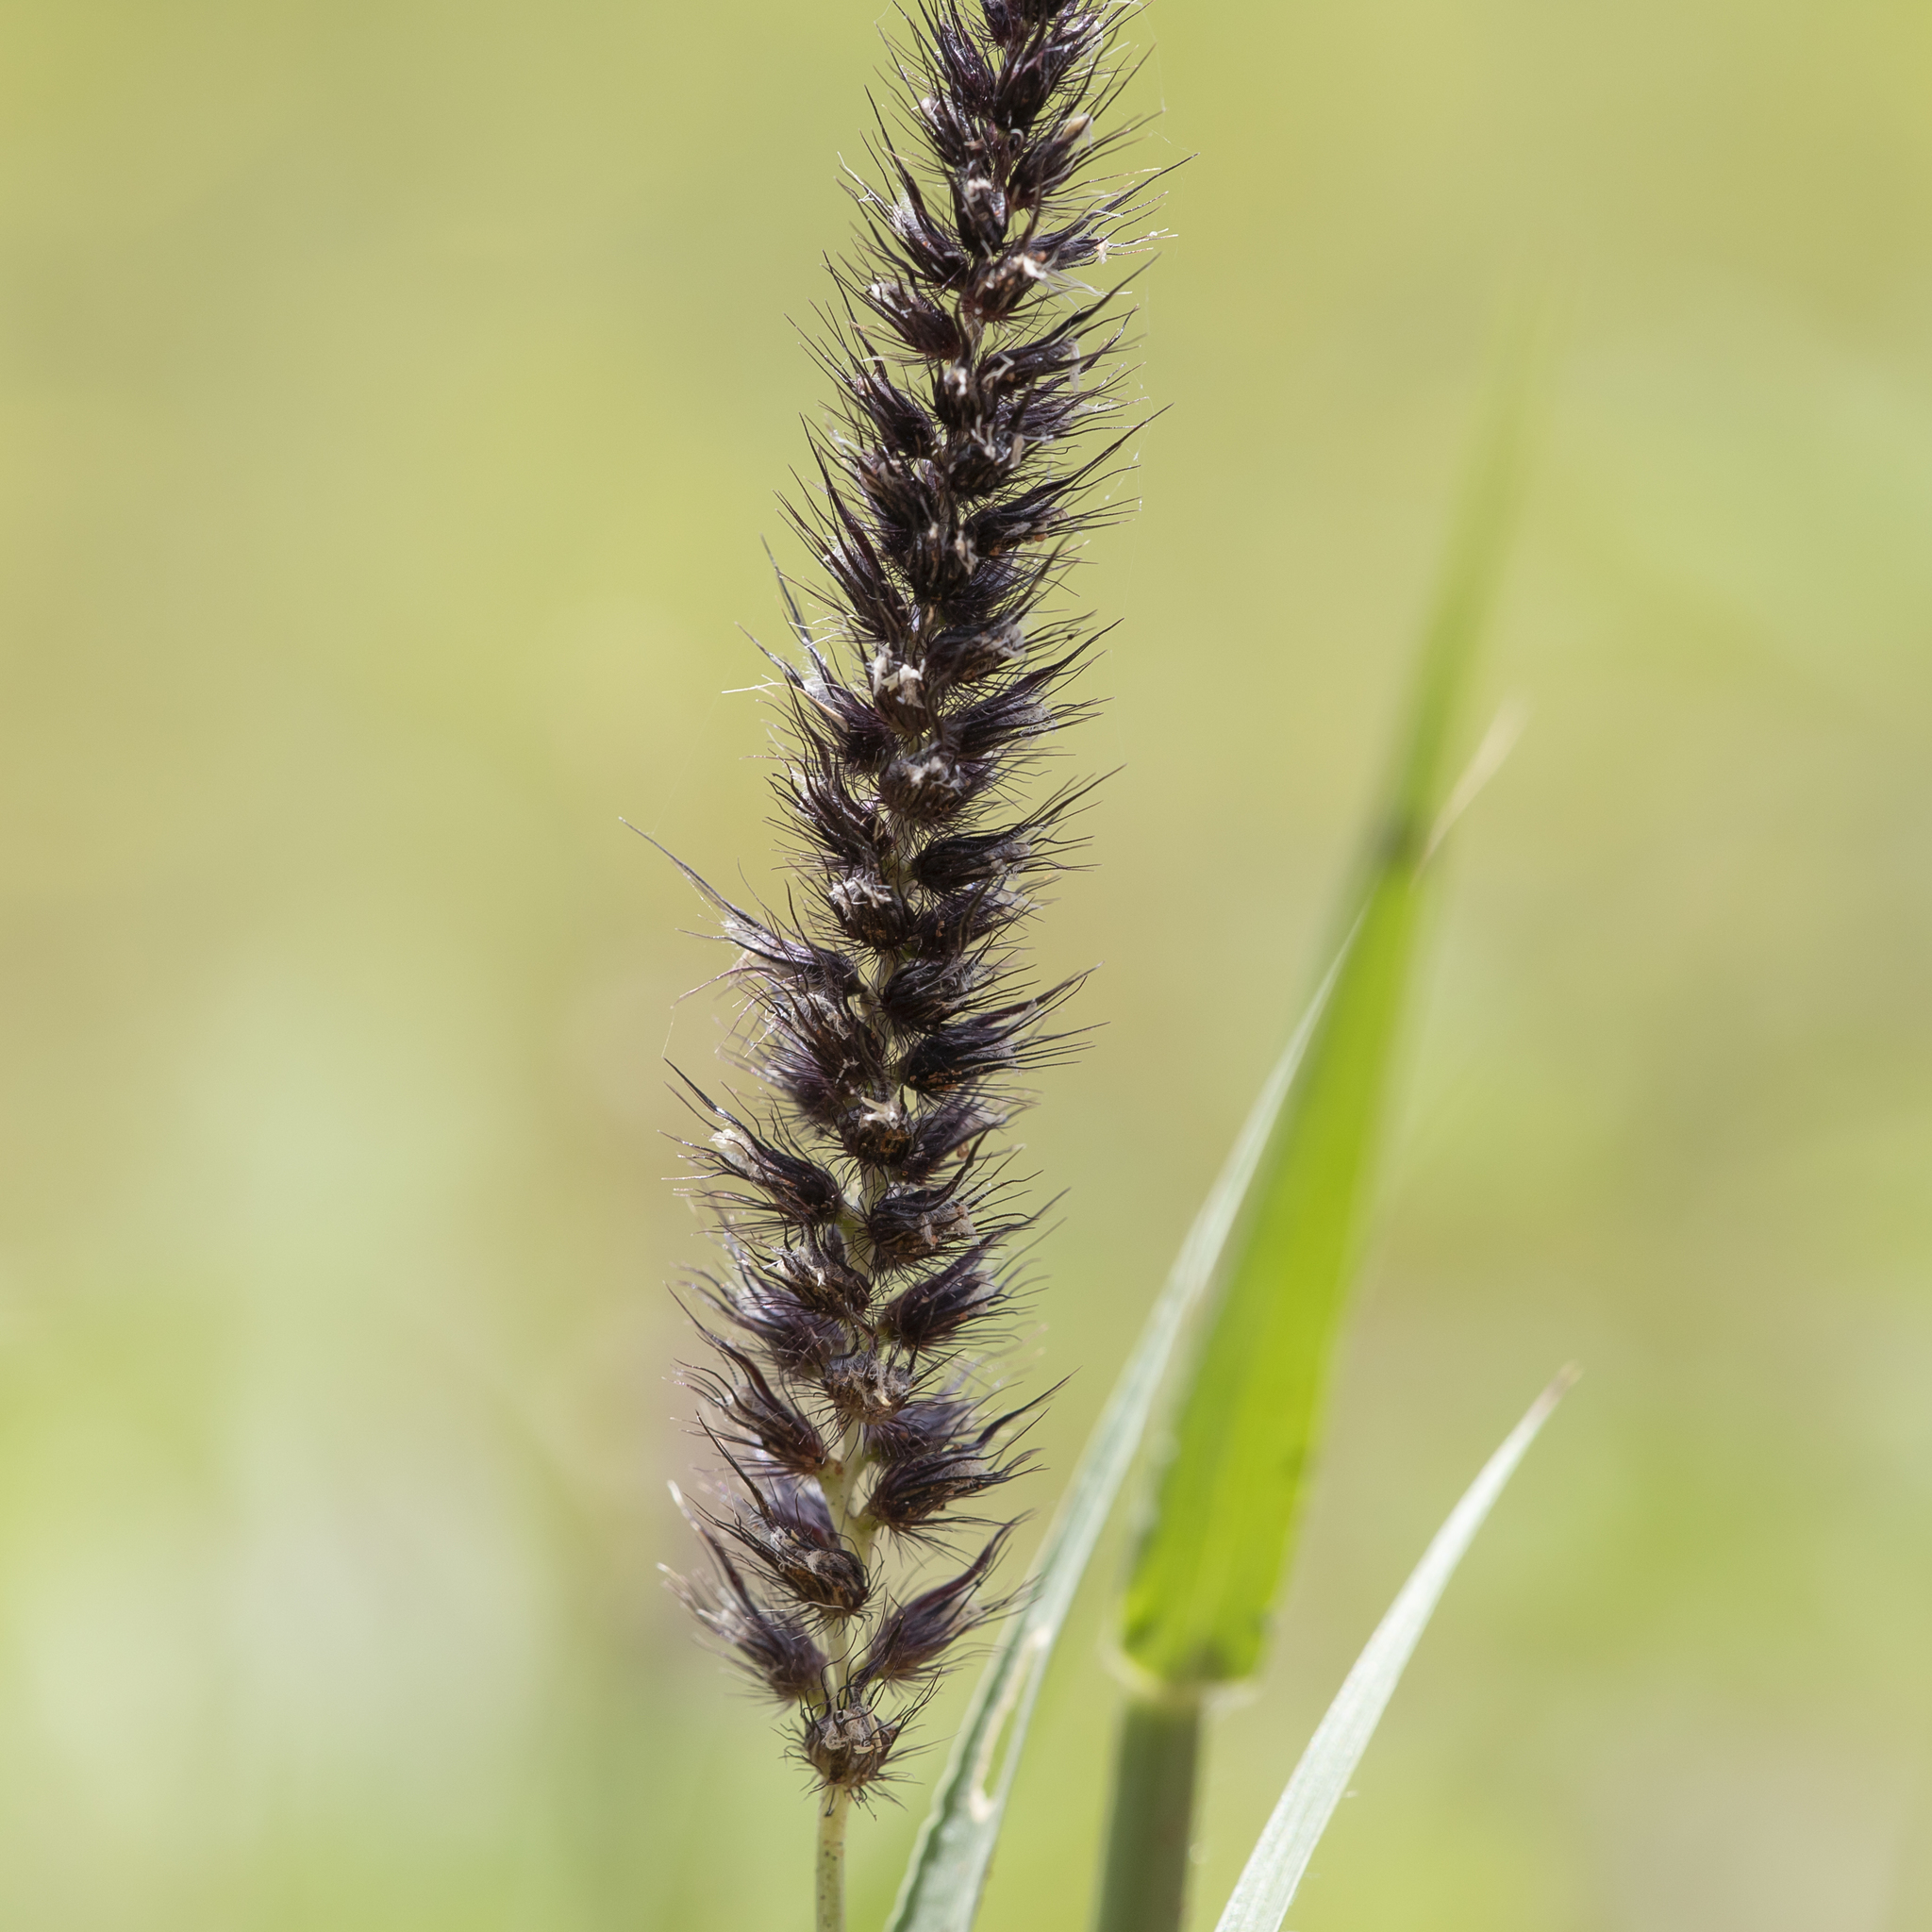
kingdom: Plantae
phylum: Tracheophyta
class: Liliopsida
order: Poales
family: Poaceae
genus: Cenchrus
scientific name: Cenchrus ciliaris
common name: Buffelgrass
